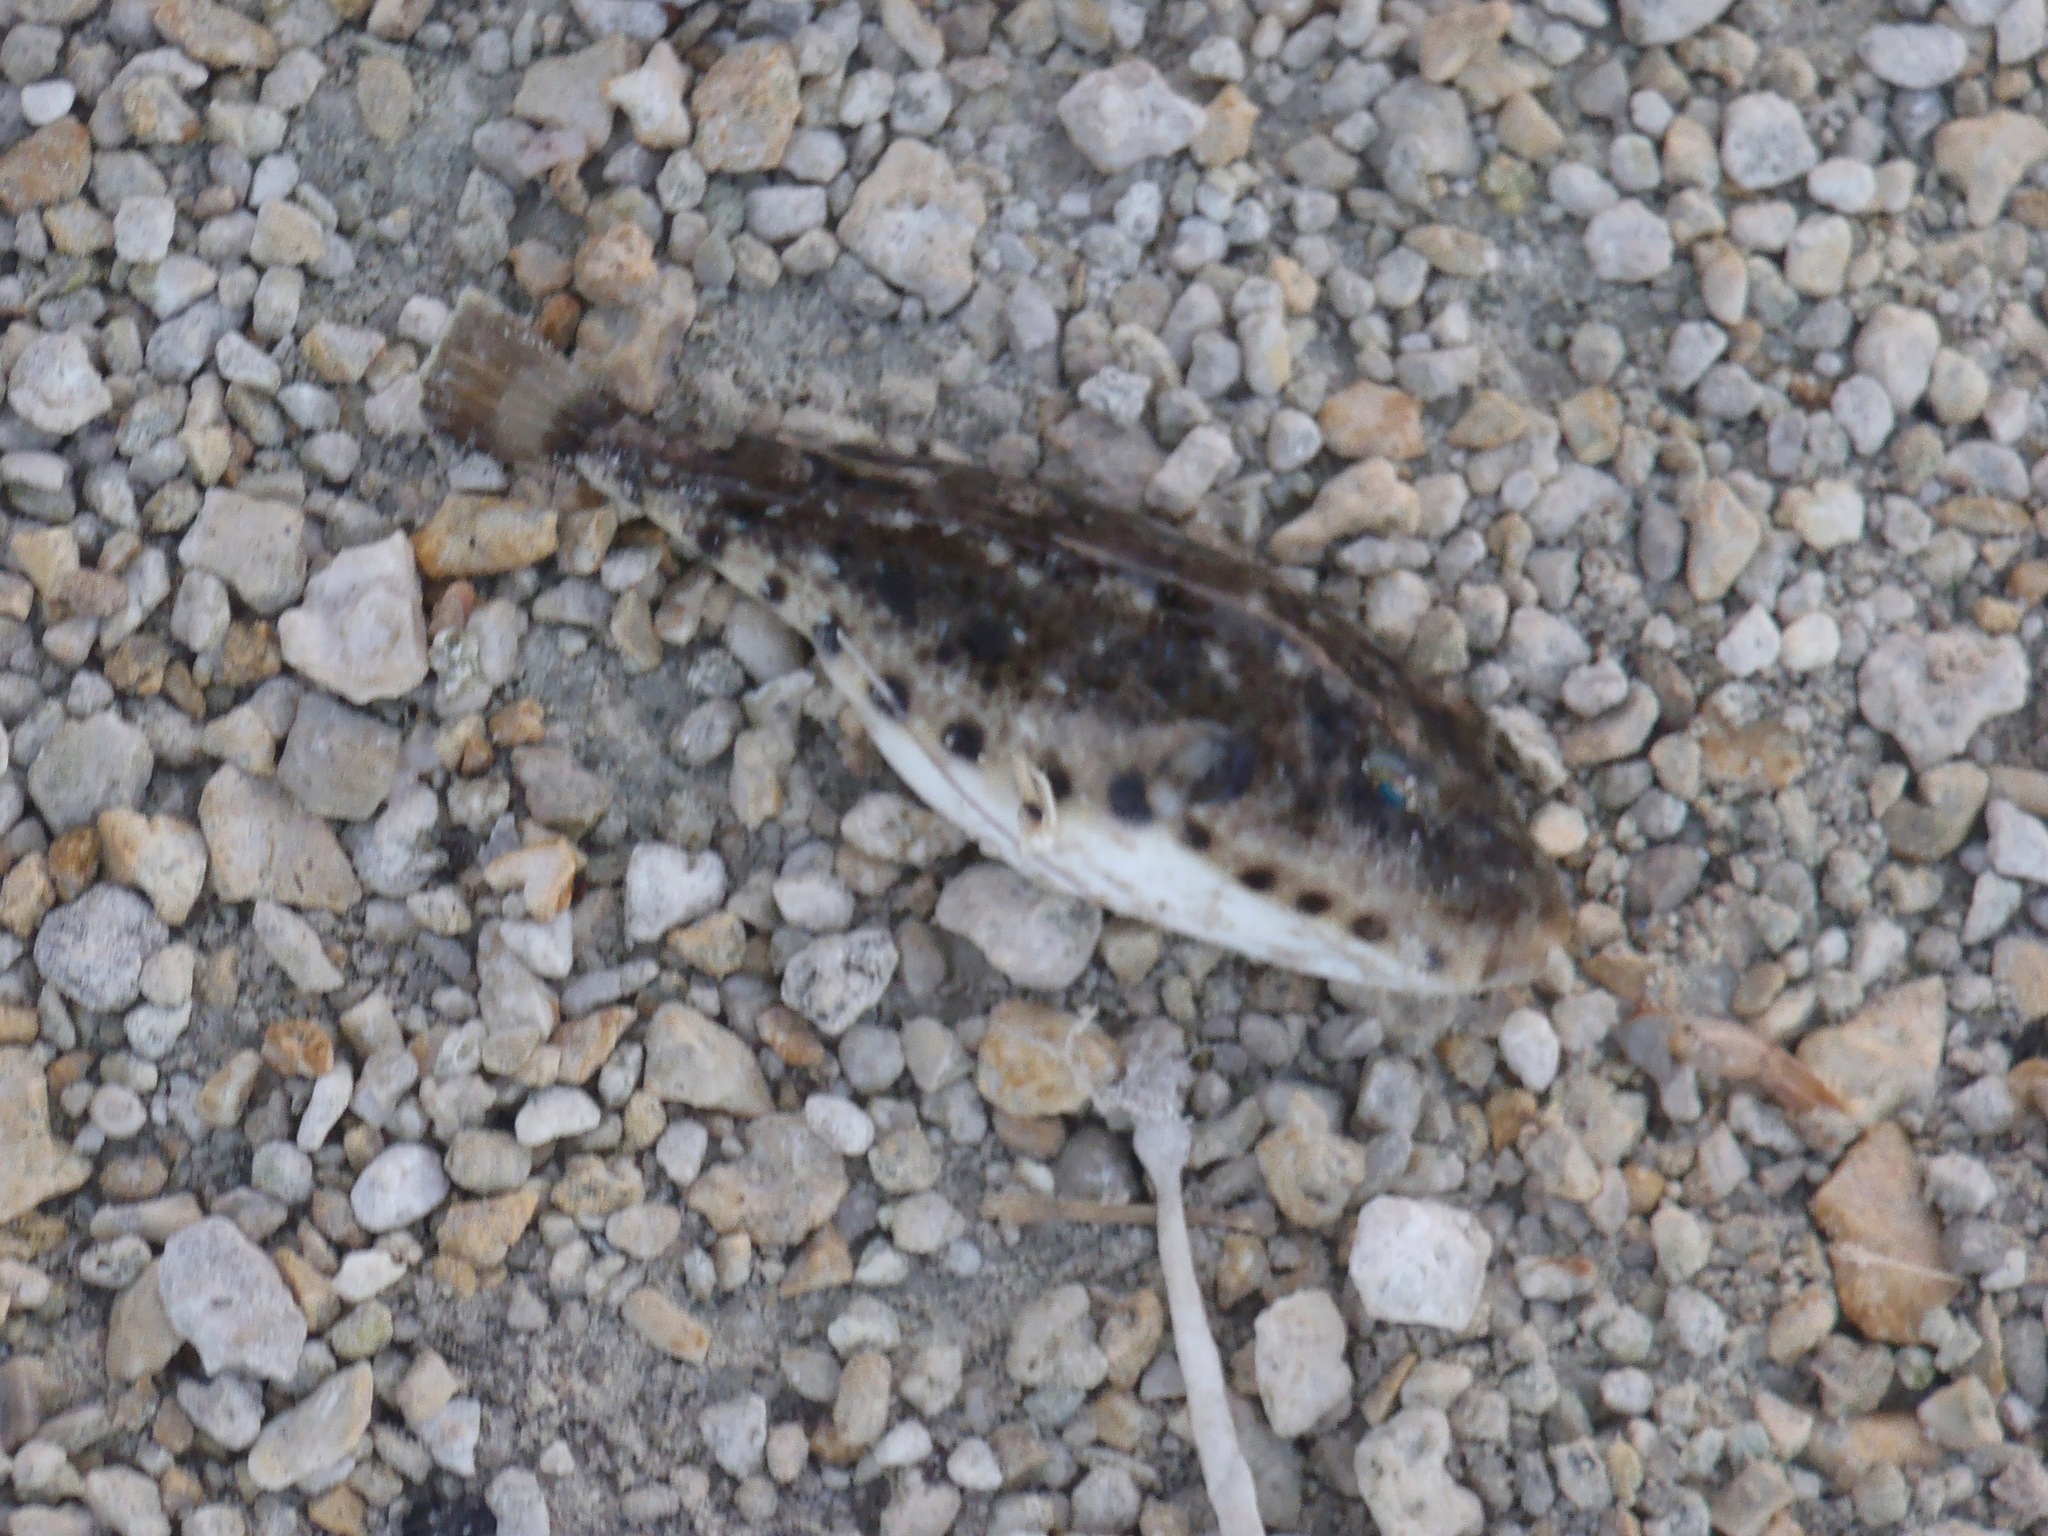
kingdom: Animalia
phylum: Chordata
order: Tetraodontiformes
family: Tetraodontidae
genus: Sphoeroides
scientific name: Sphoeroides spengleri
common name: Bandtail puffer
